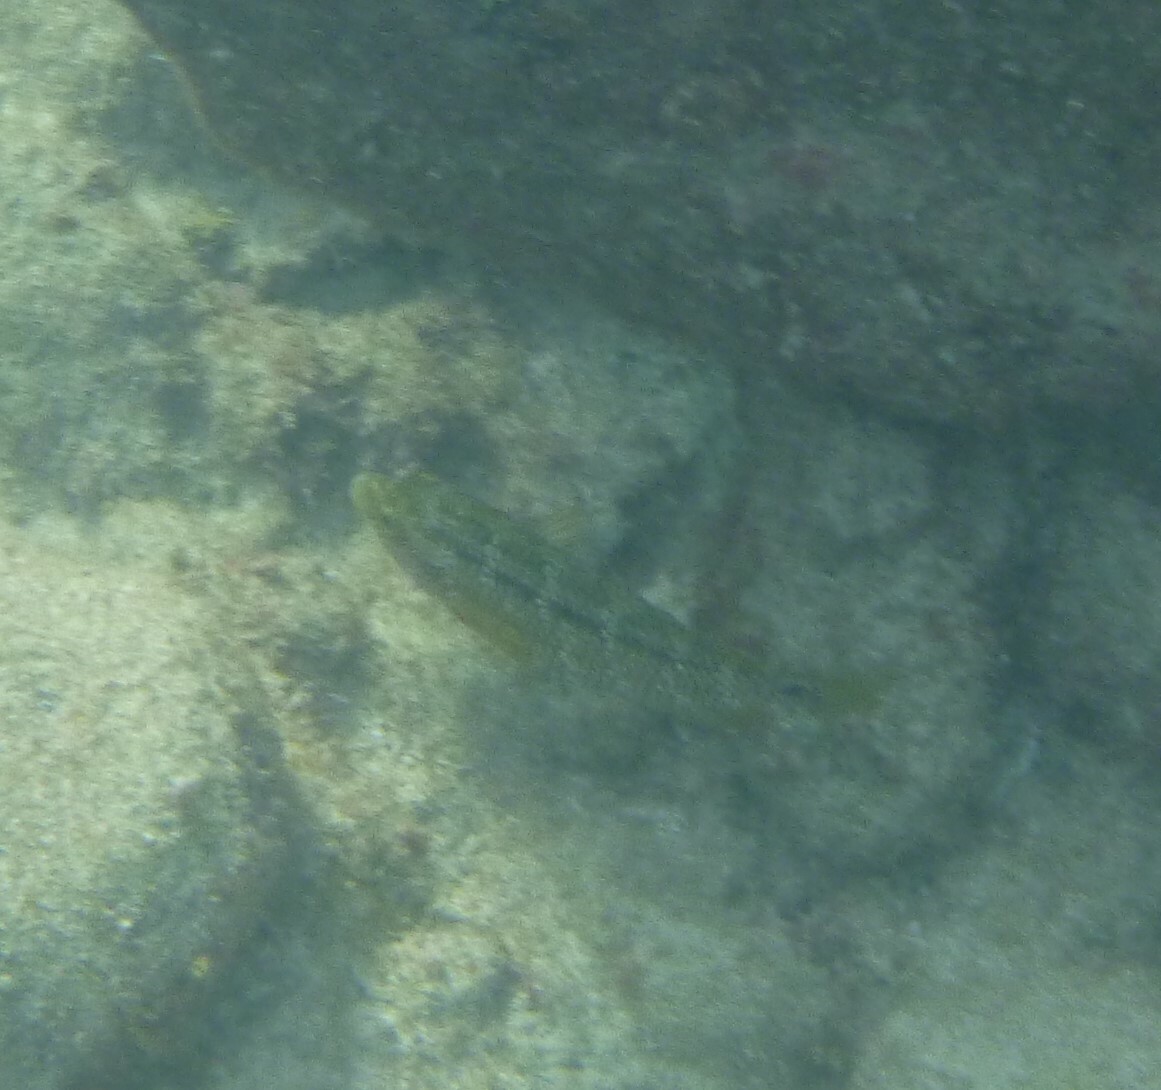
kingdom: Animalia
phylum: Chordata
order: Perciformes
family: Labridae
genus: Symphodus
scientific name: Symphodus trutta
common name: Emerald wrasse
